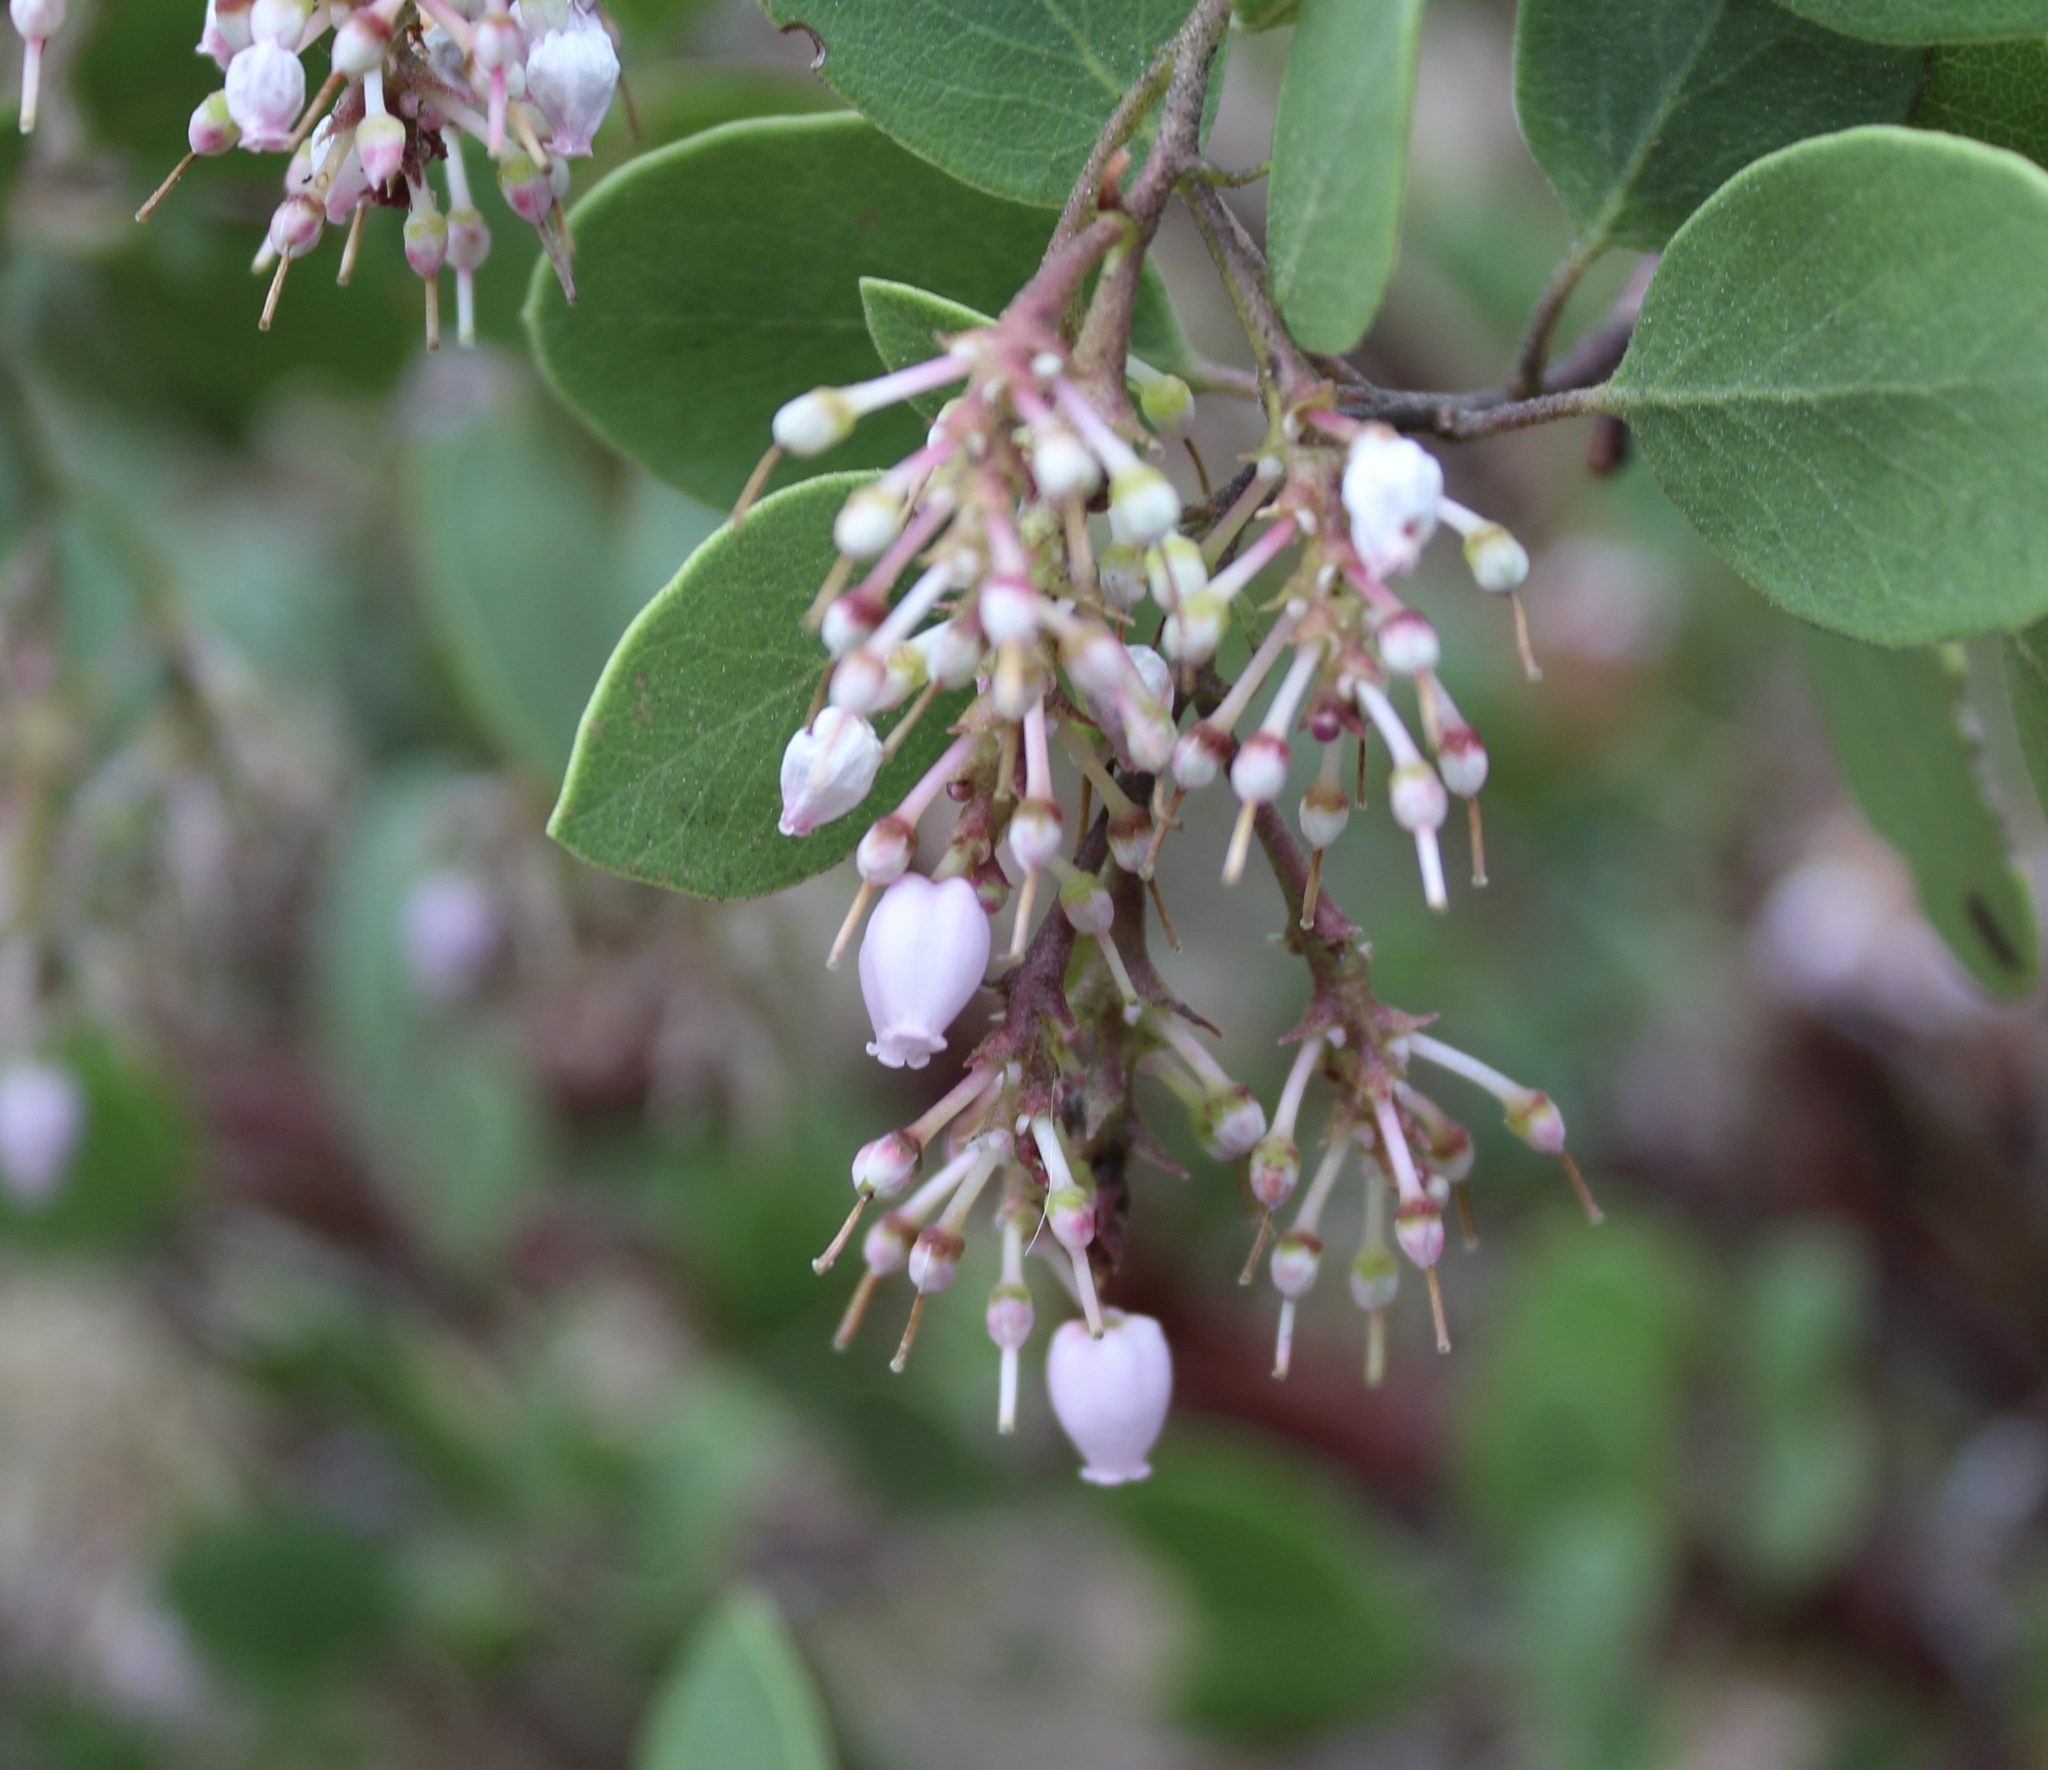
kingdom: Plantae
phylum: Tracheophyta
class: Magnoliopsida
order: Ericales
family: Ericaceae
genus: Arctostaphylos
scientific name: Arctostaphylos patula
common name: Green-leaf manzanita
